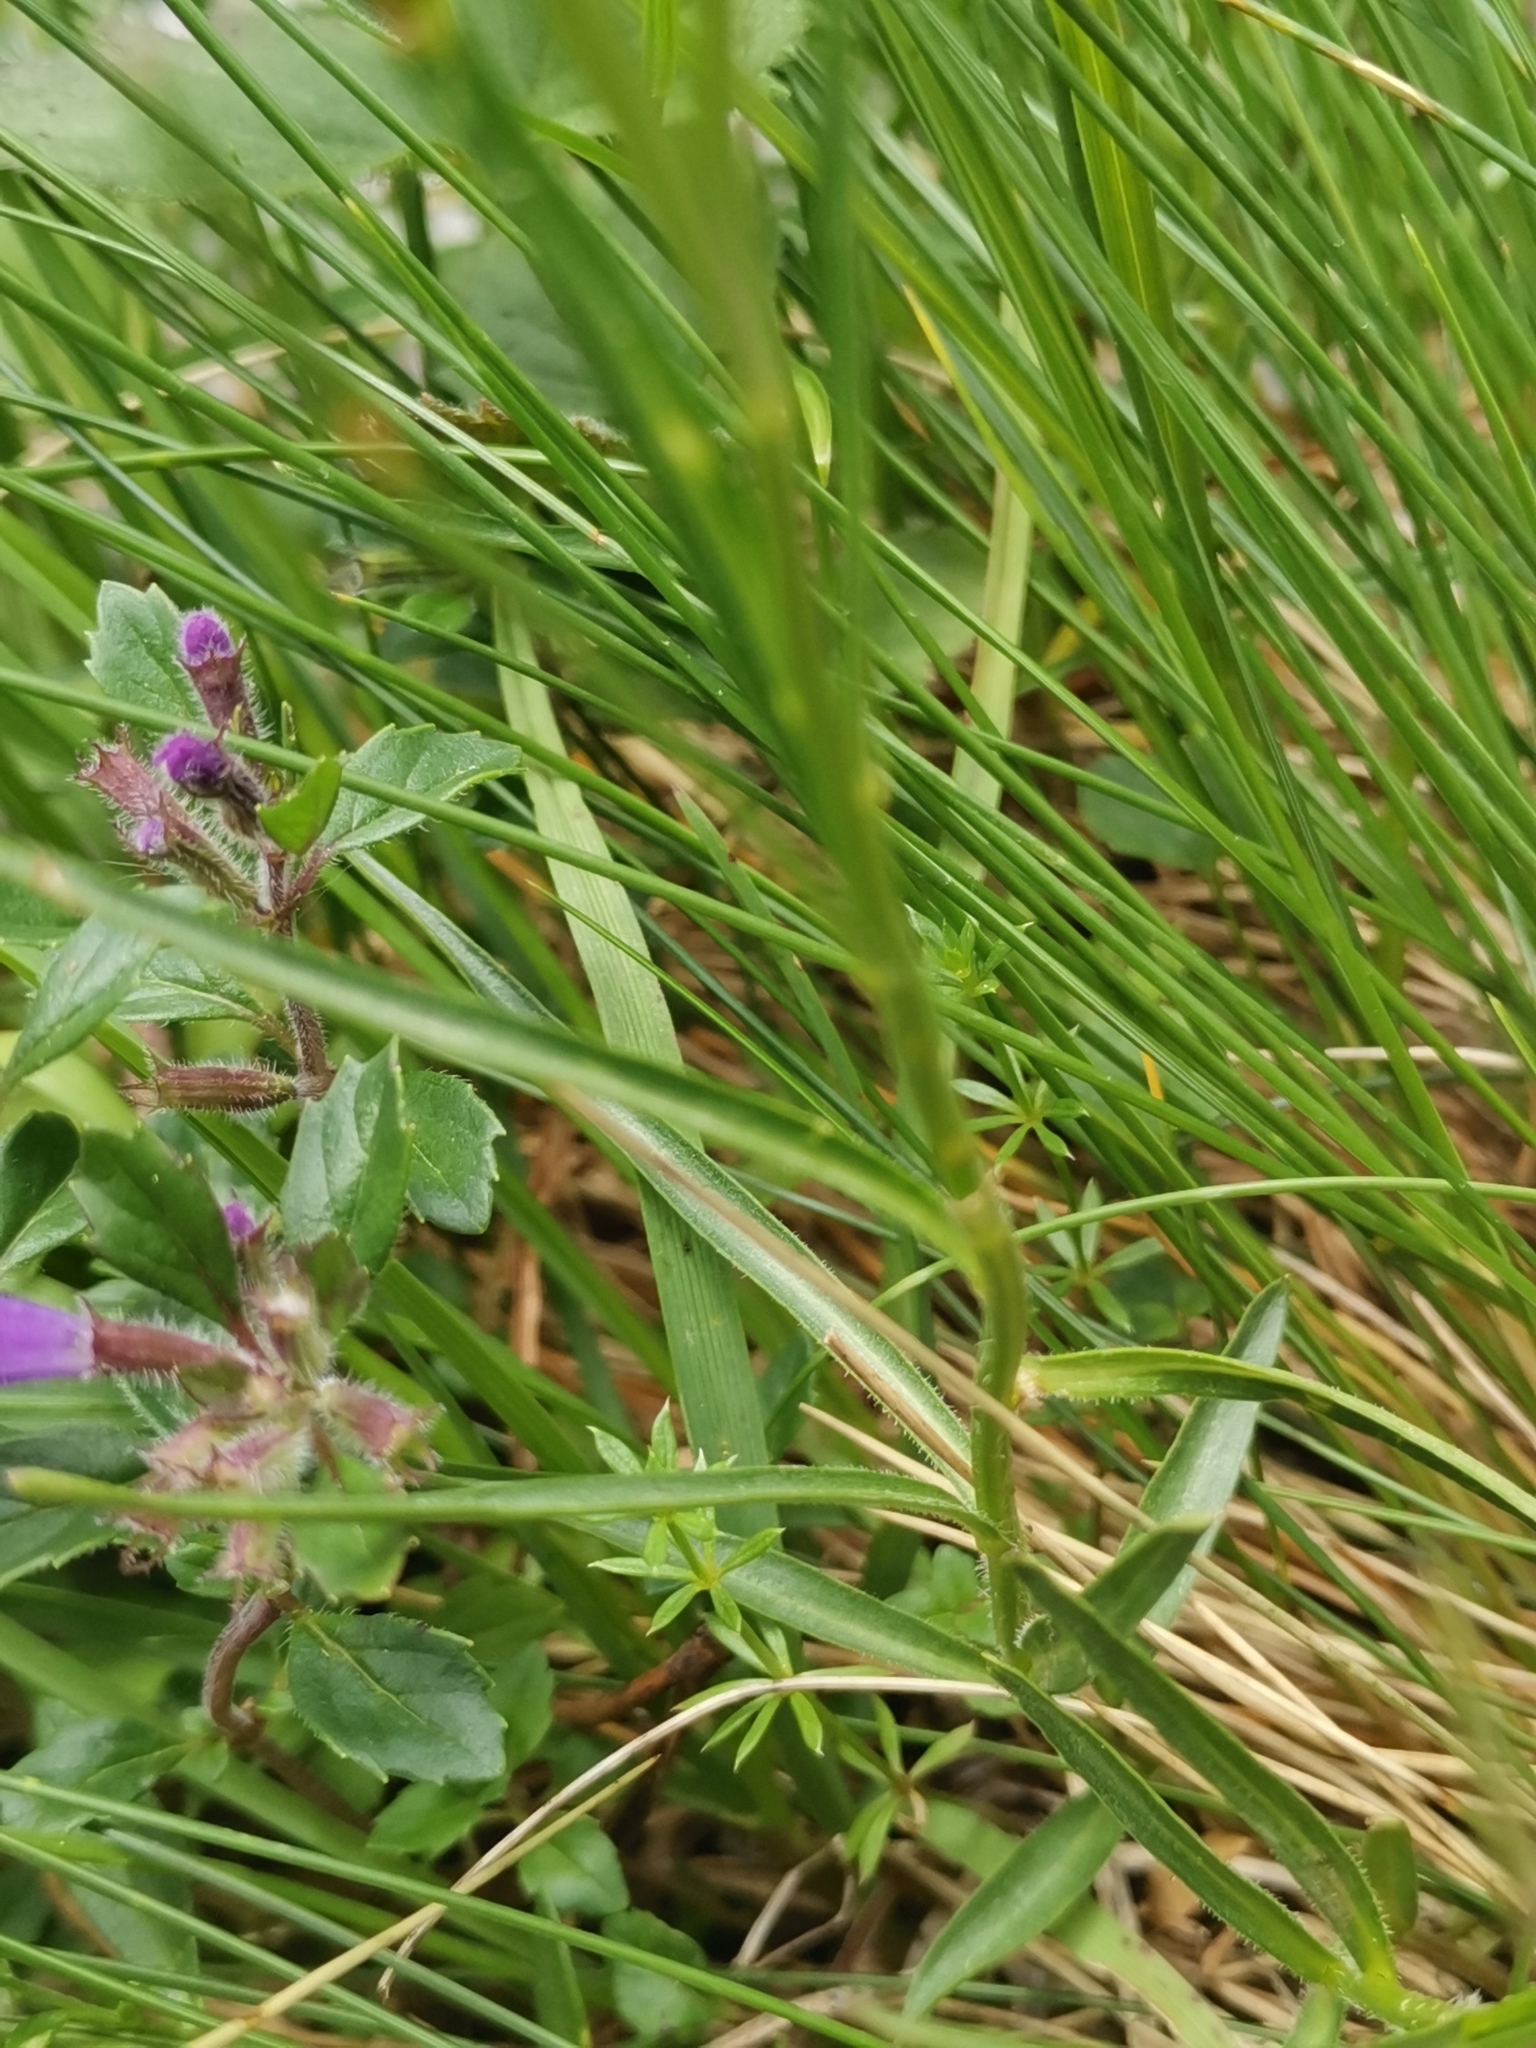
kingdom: Plantae
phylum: Tracheophyta
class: Magnoliopsida
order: Asterales
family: Campanulaceae
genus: Campanula
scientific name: Campanula scheuchzeri
